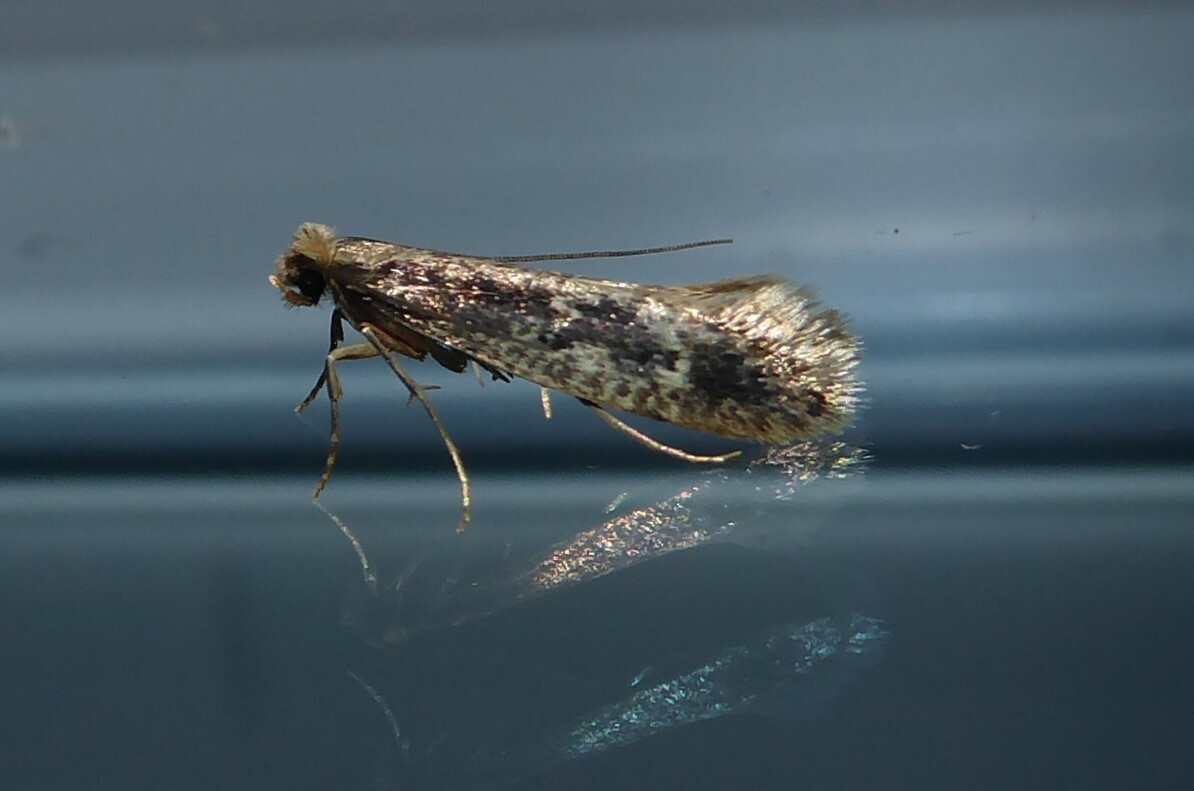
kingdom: Animalia
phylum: Arthropoda
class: Insecta
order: Lepidoptera
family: Tineidae
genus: Tinea
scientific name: Tinea pallescentella
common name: Large pale clothes moth
